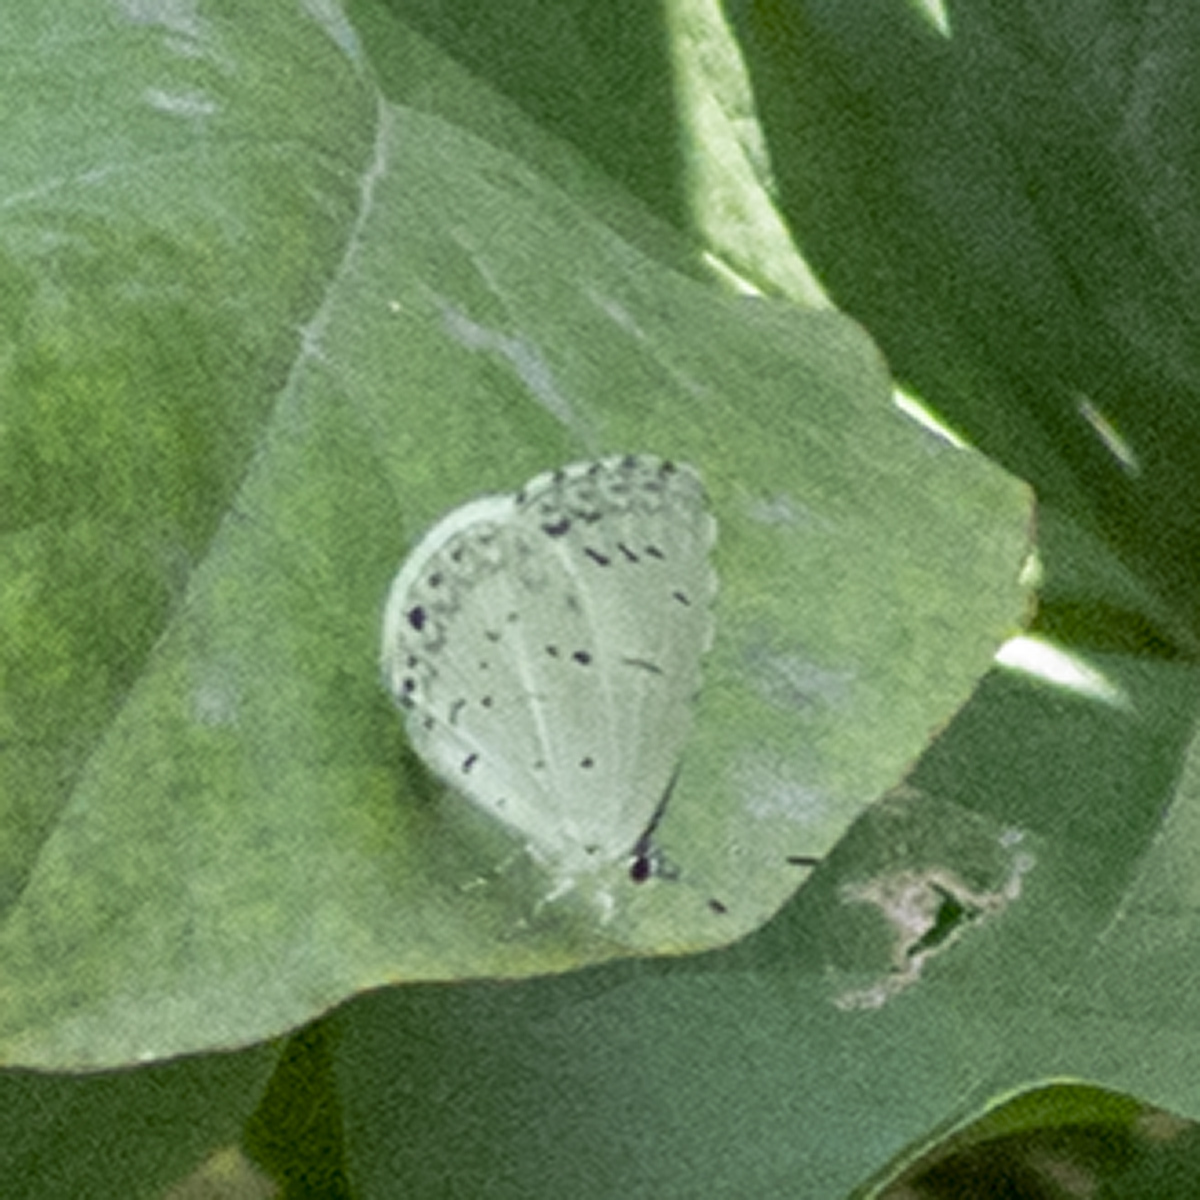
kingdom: Animalia
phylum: Arthropoda
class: Insecta
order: Lepidoptera
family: Lycaenidae
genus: Cyaniris
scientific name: Cyaniris neglecta
